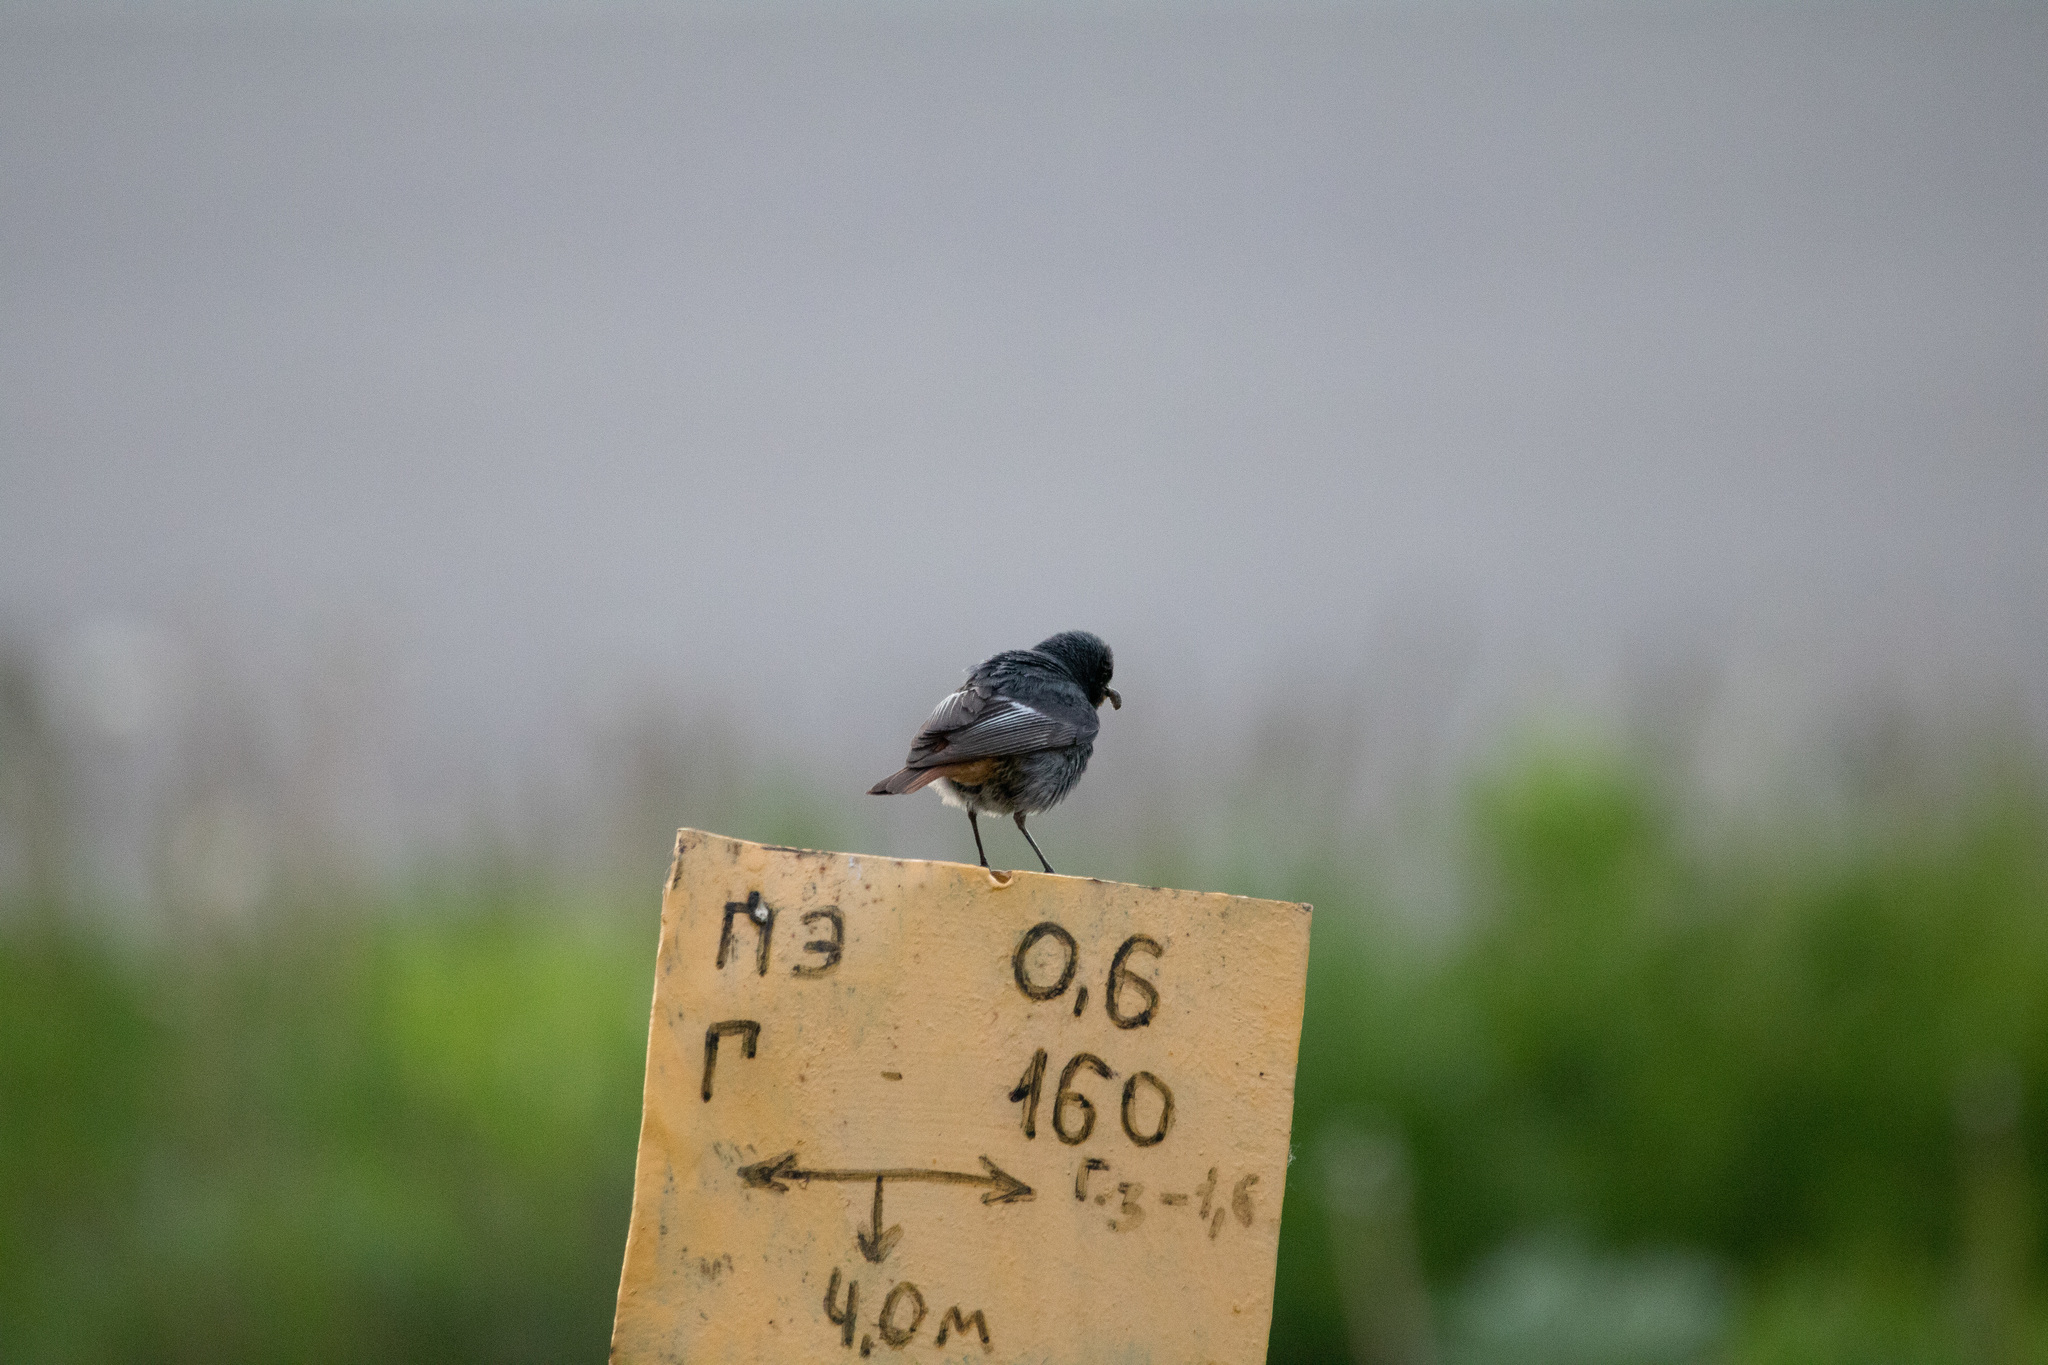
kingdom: Animalia
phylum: Chordata
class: Aves
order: Passeriformes
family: Muscicapidae
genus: Phoenicurus
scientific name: Phoenicurus ochruros
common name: Black redstart
